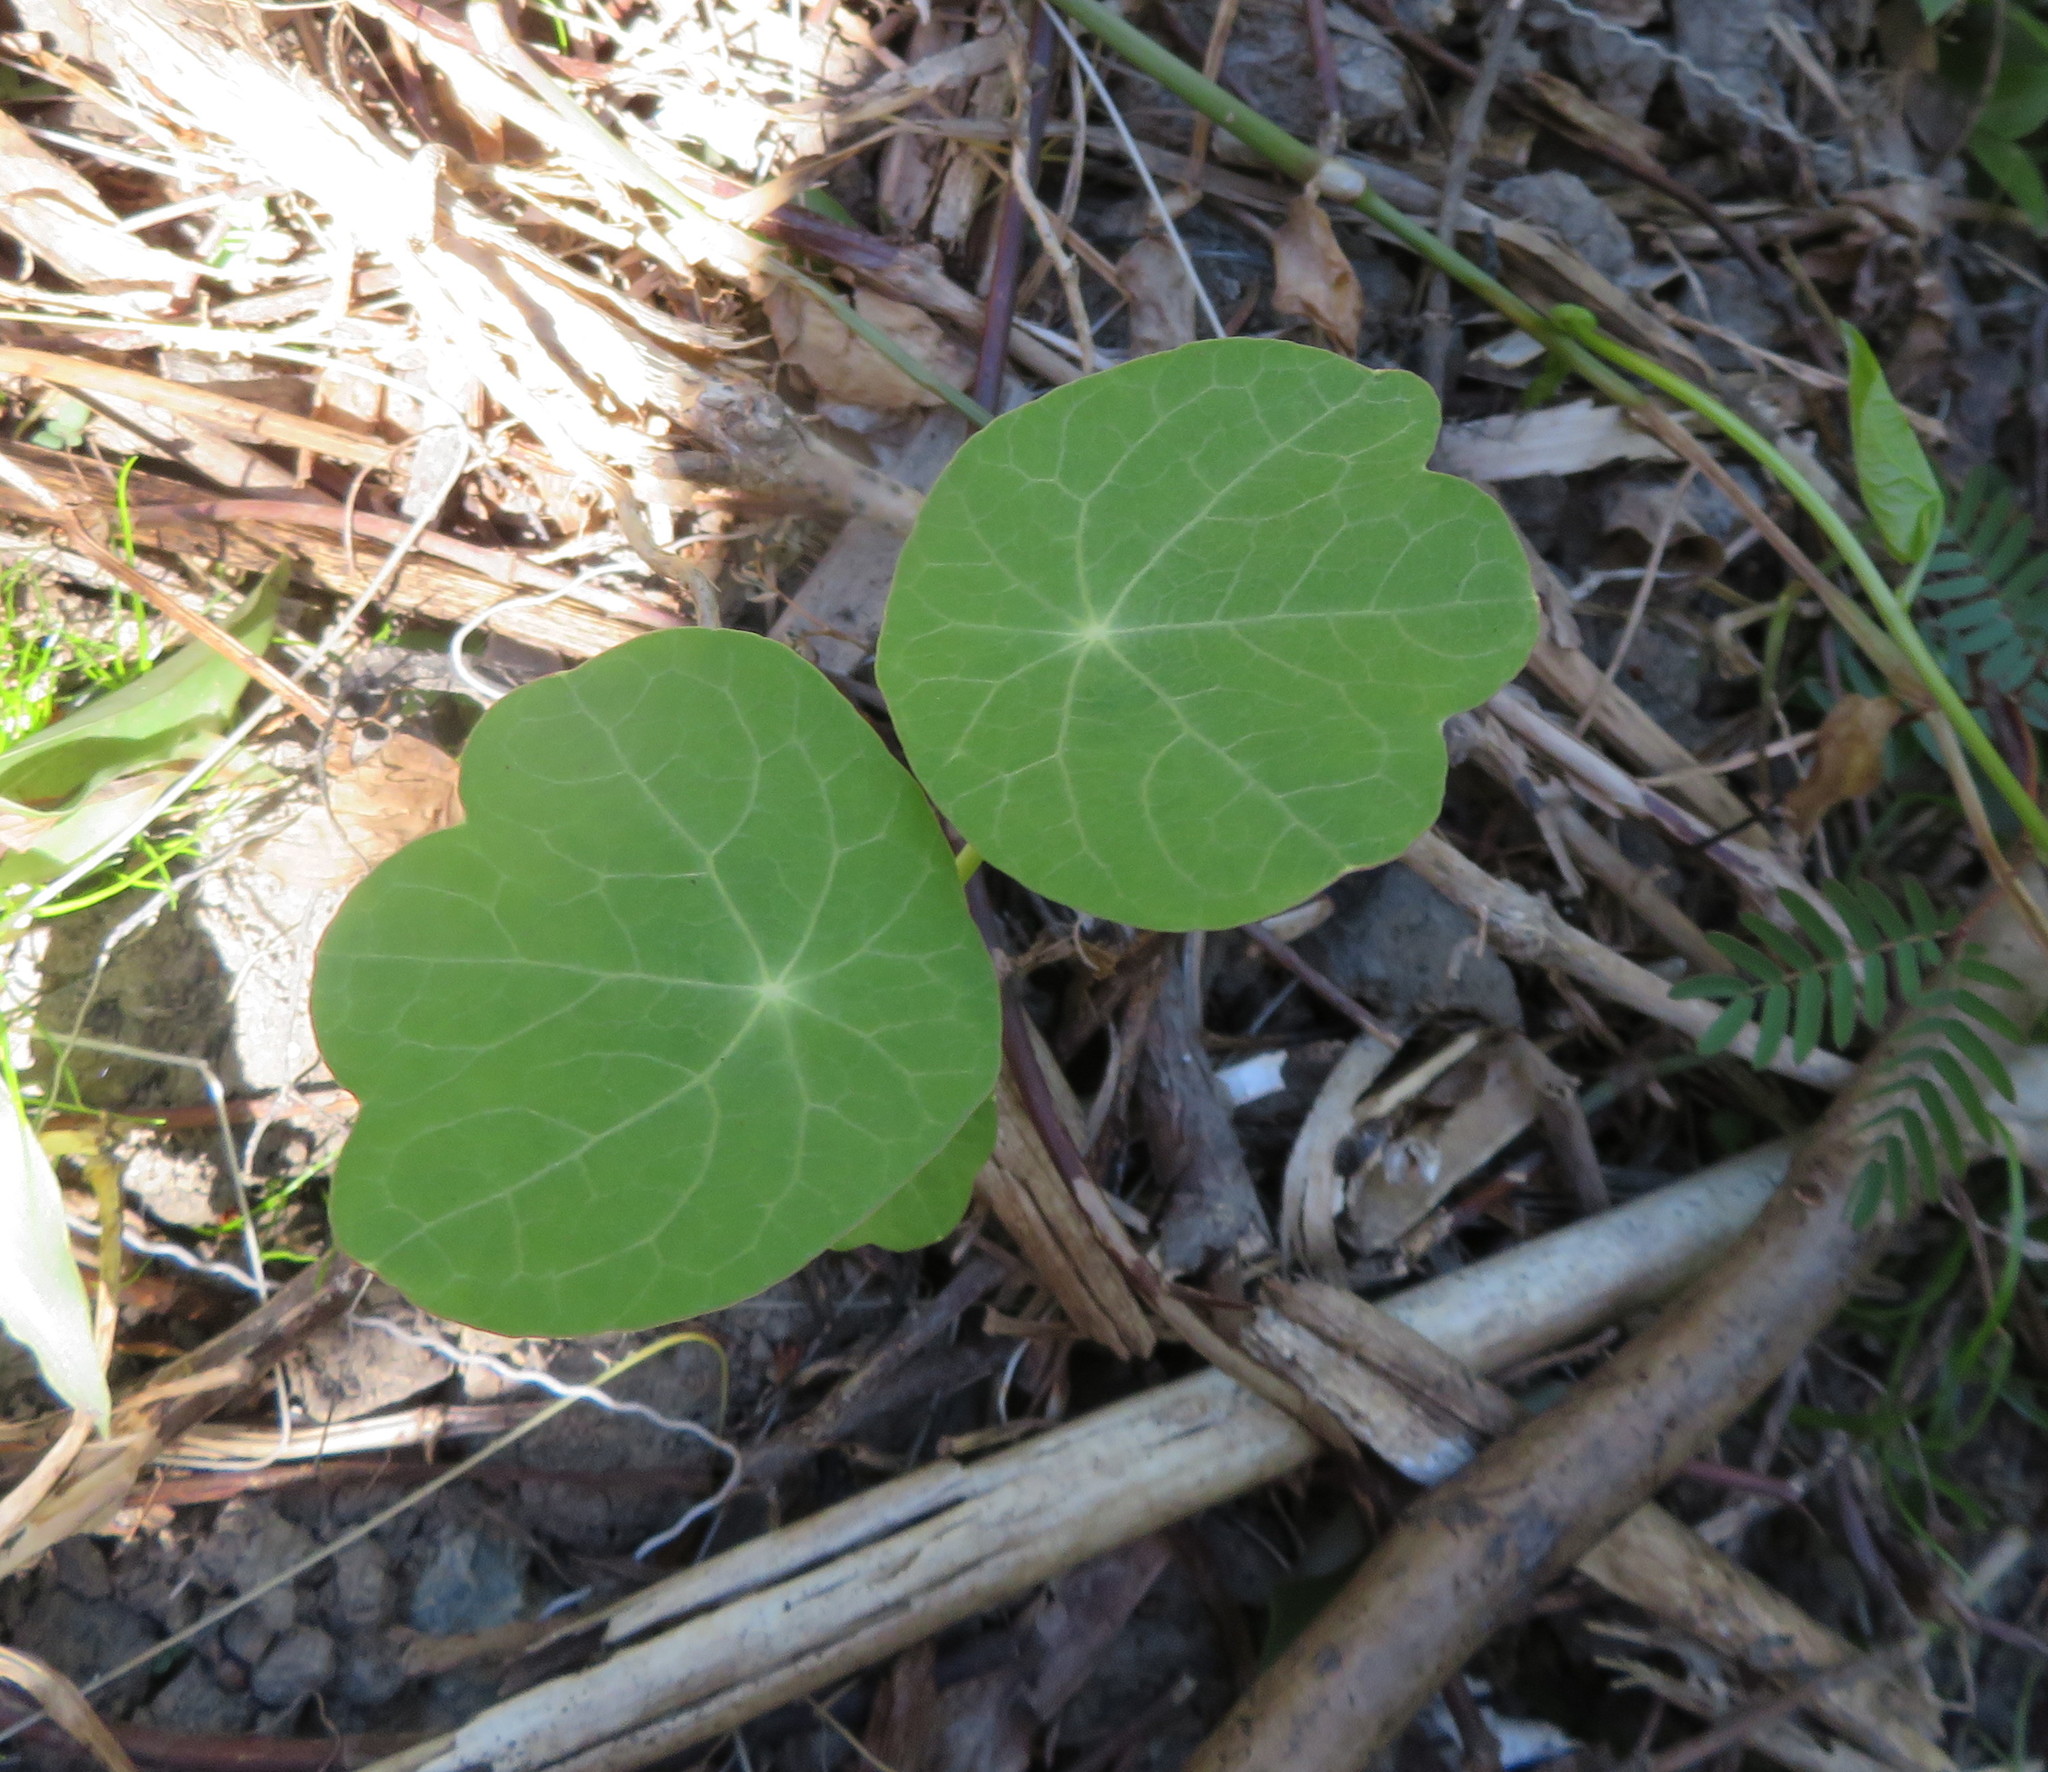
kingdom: Plantae
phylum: Tracheophyta
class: Magnoliopsida
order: Brassicales
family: Tropaeolaceae
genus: Tropaeolum
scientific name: Tropaeolum majus
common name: Nasturtium
